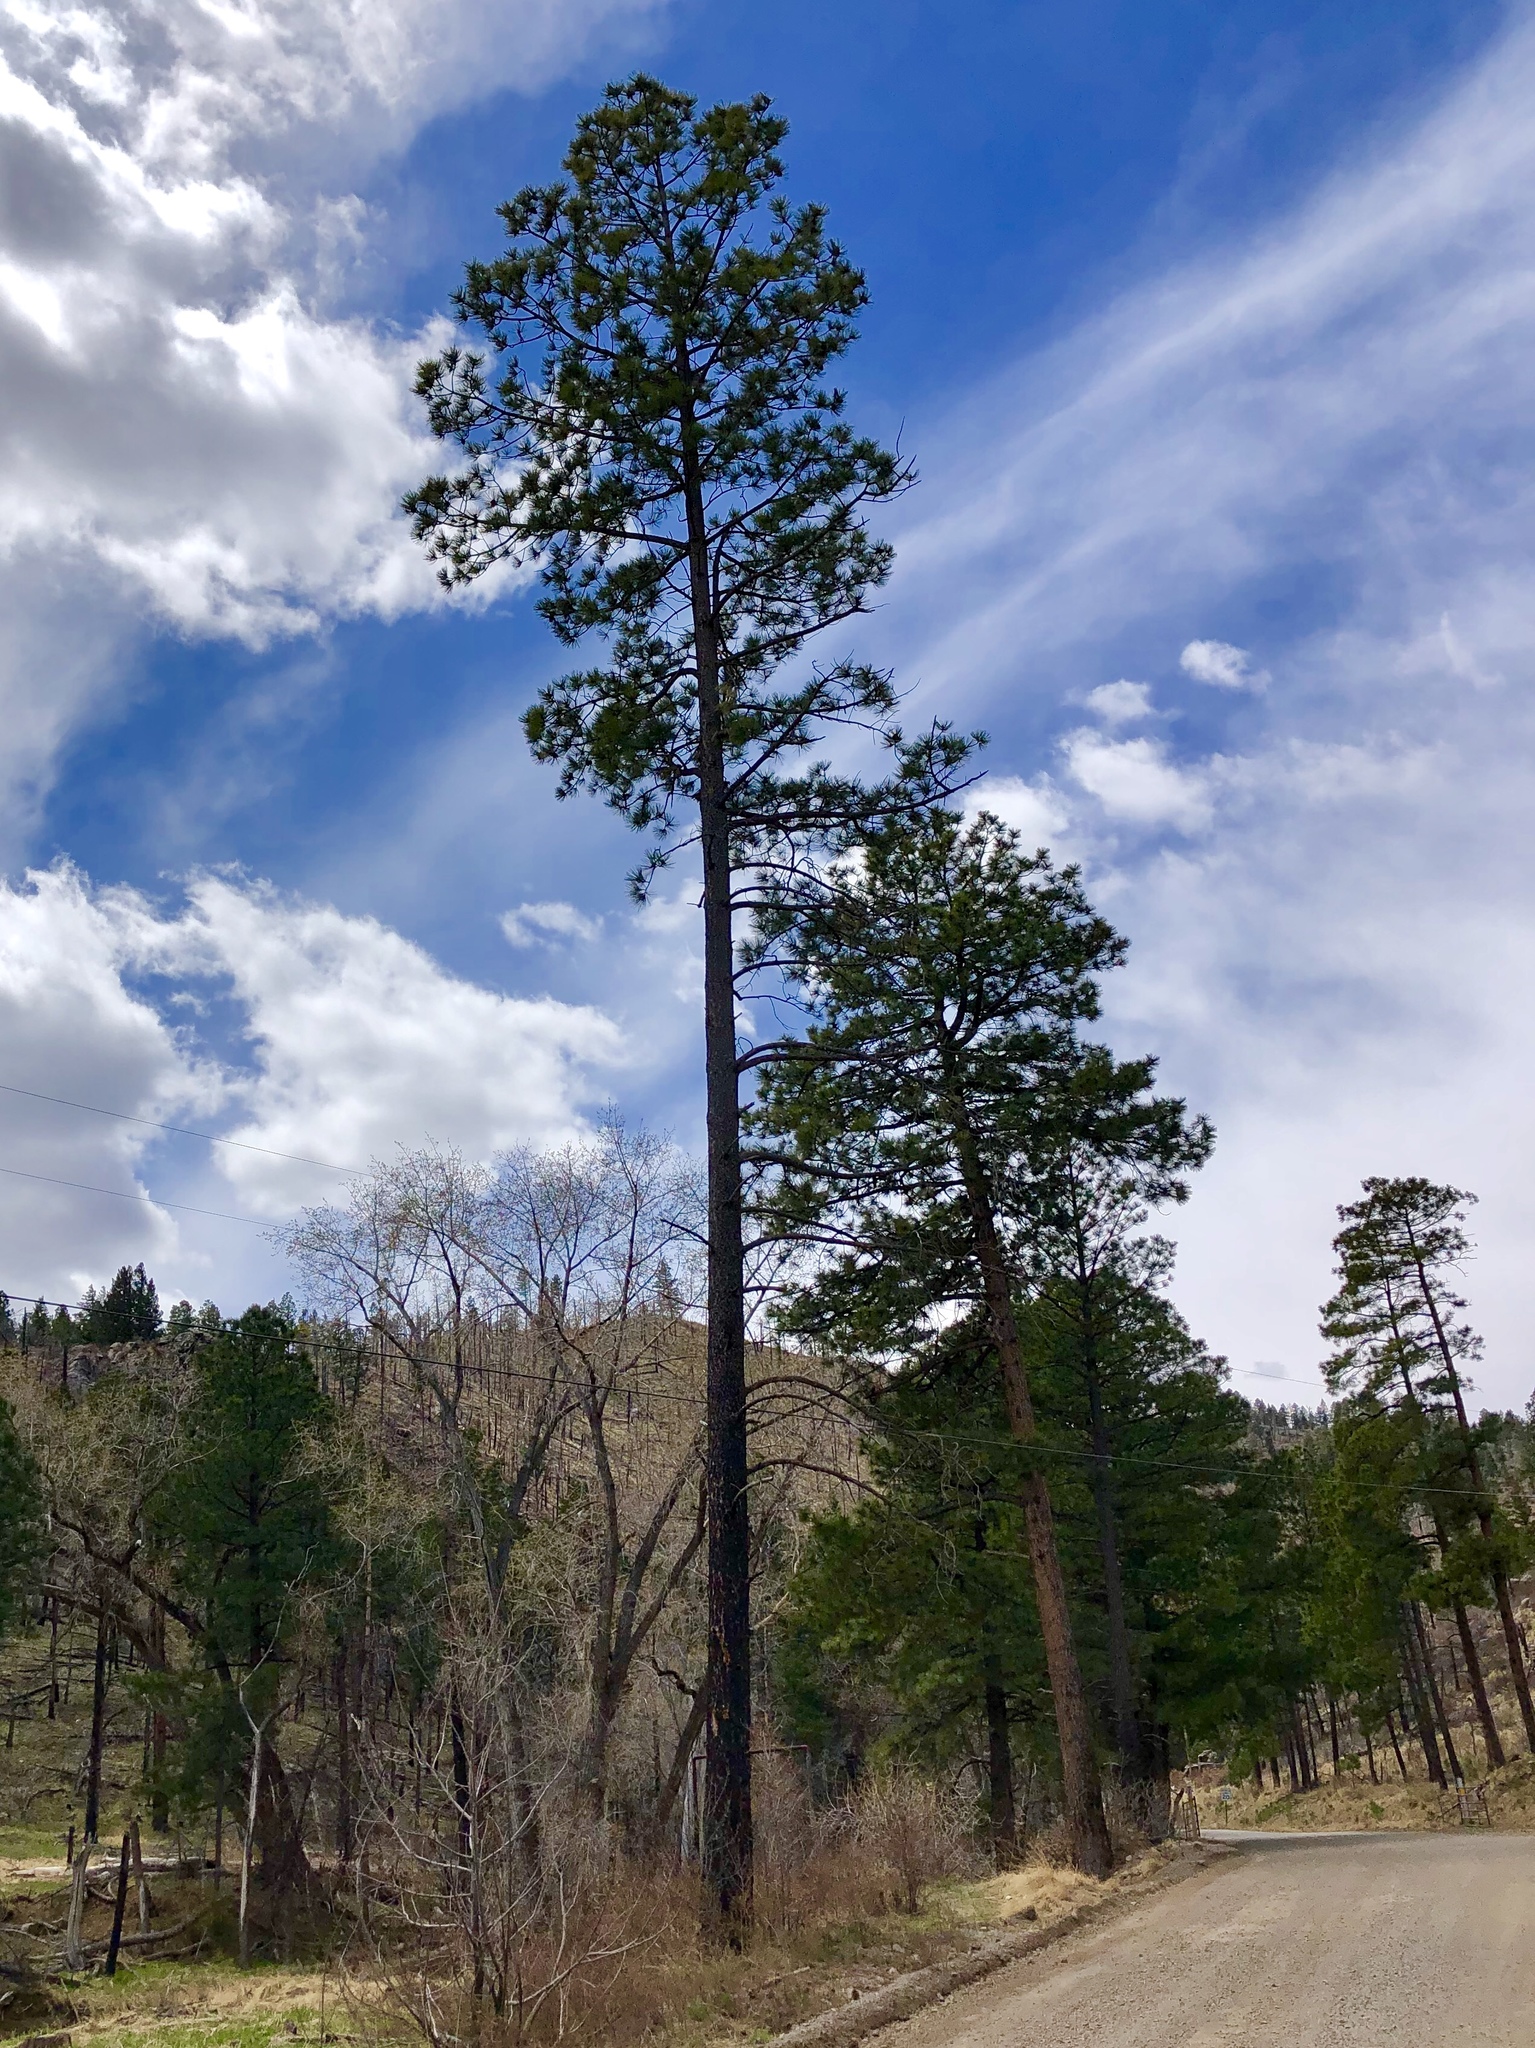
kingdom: Plantae
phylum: Tracheophyta
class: Pinopsida
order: Pinales
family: Pinaceae
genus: Pinus
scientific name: Pinus ponderosa
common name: Western yellow-pine
